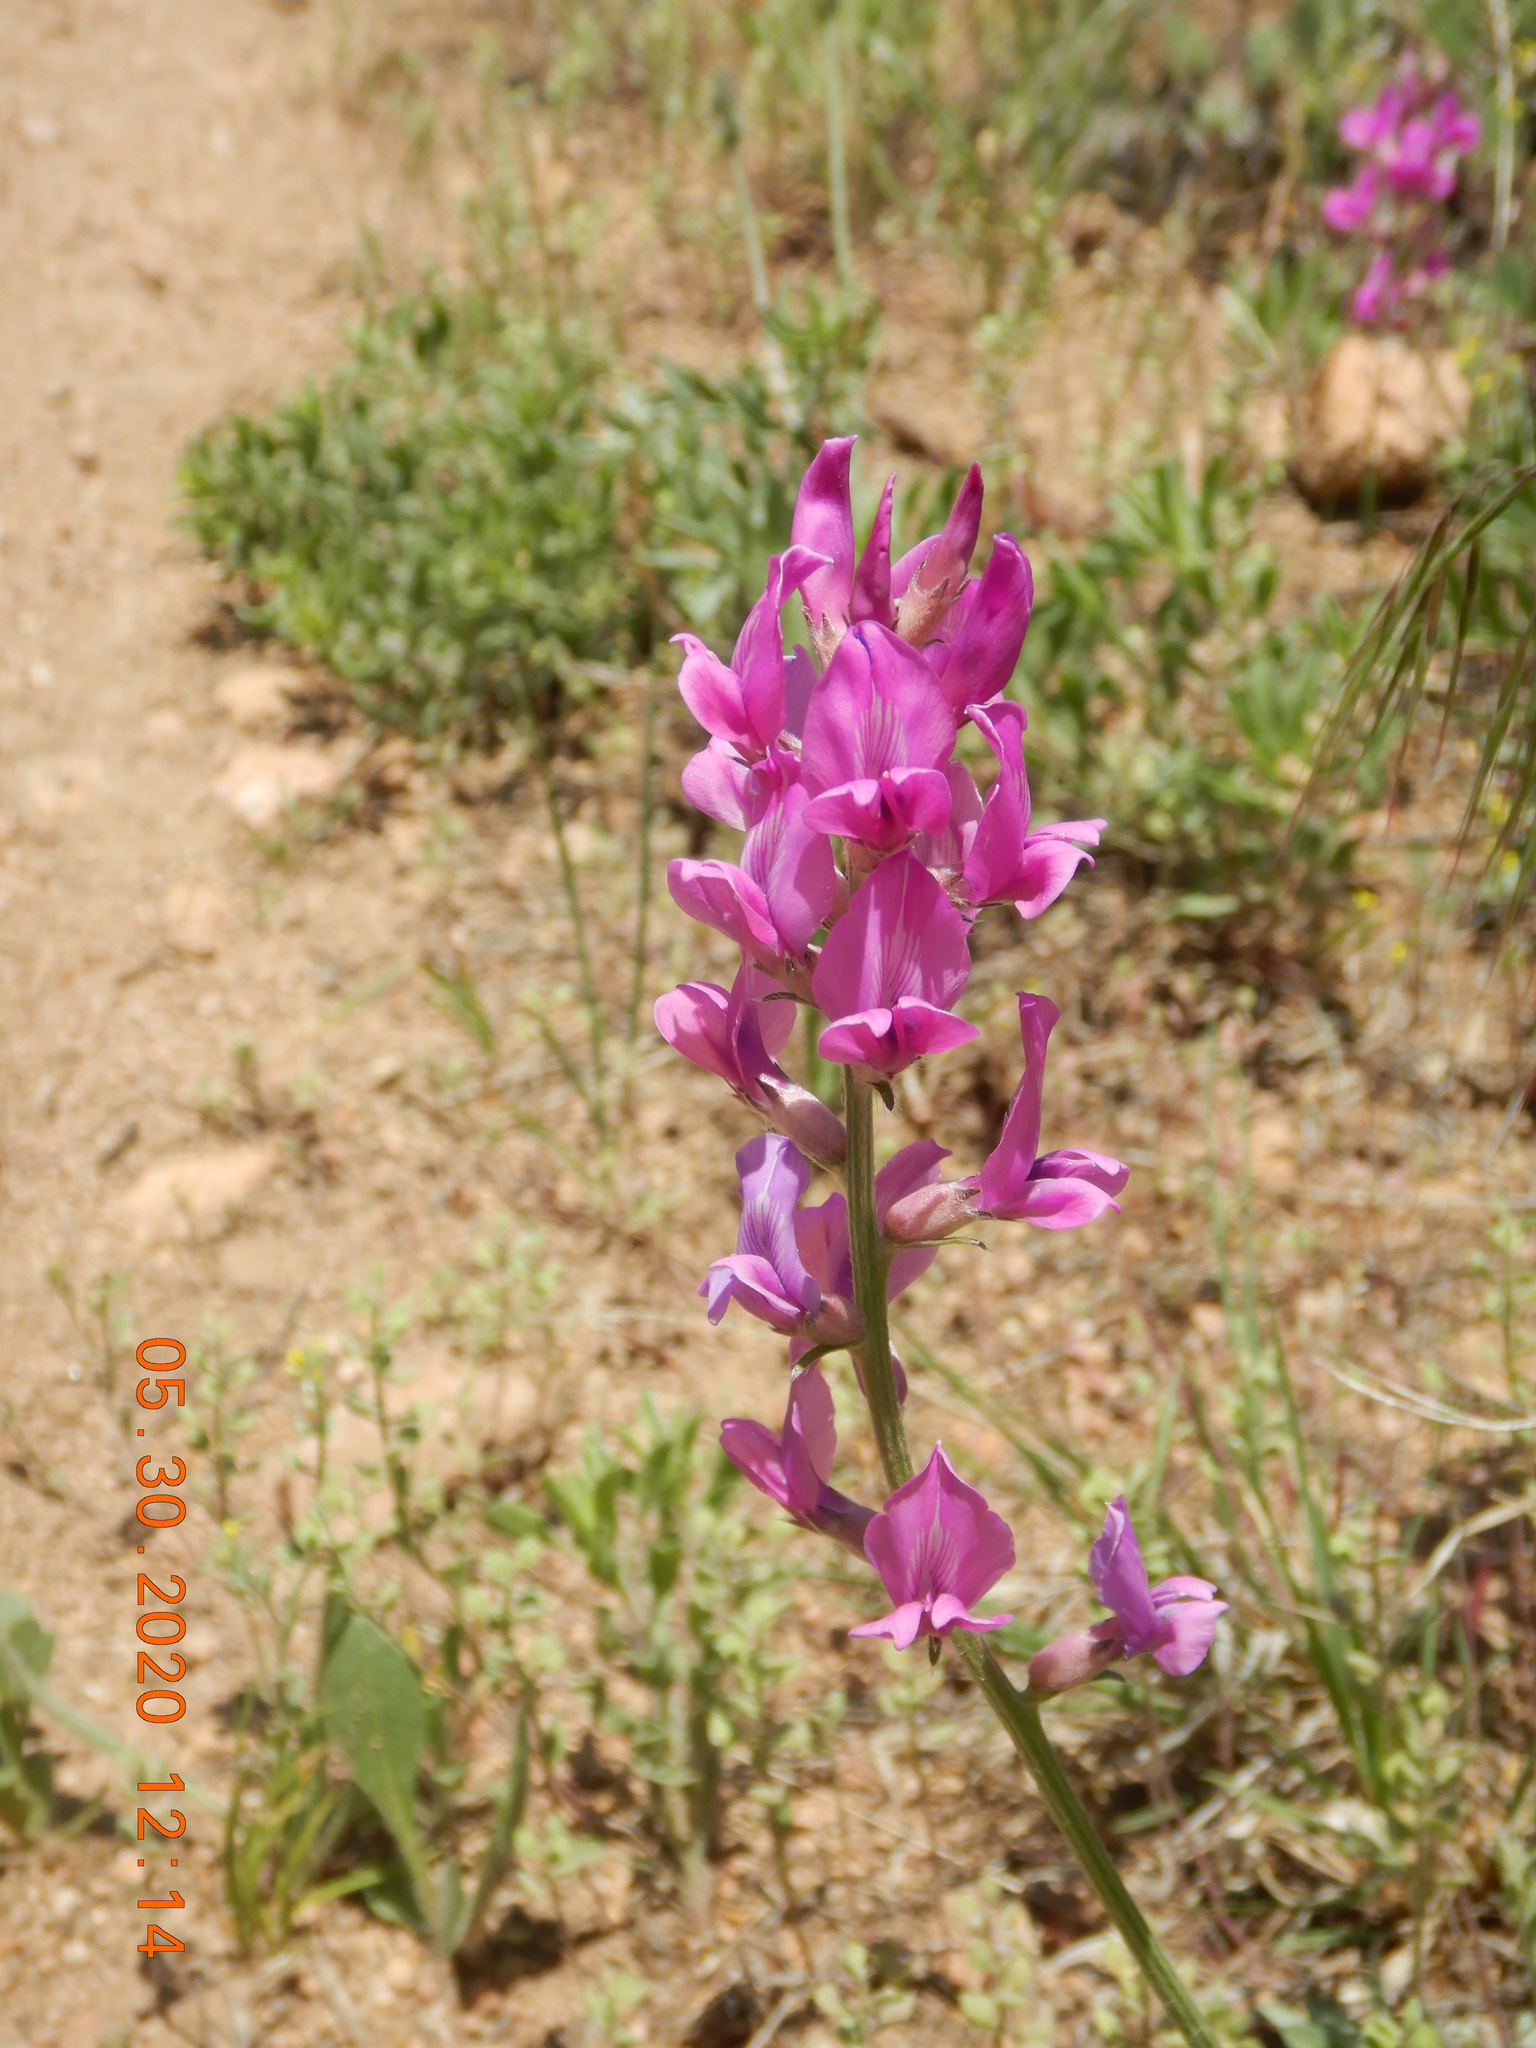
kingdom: Plantae
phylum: Tracheophyta
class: Magnoliopsida
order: Fabales
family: Fabaceae
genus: Oxytropis
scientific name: Oxytropis lambertii
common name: Purple locoweed
